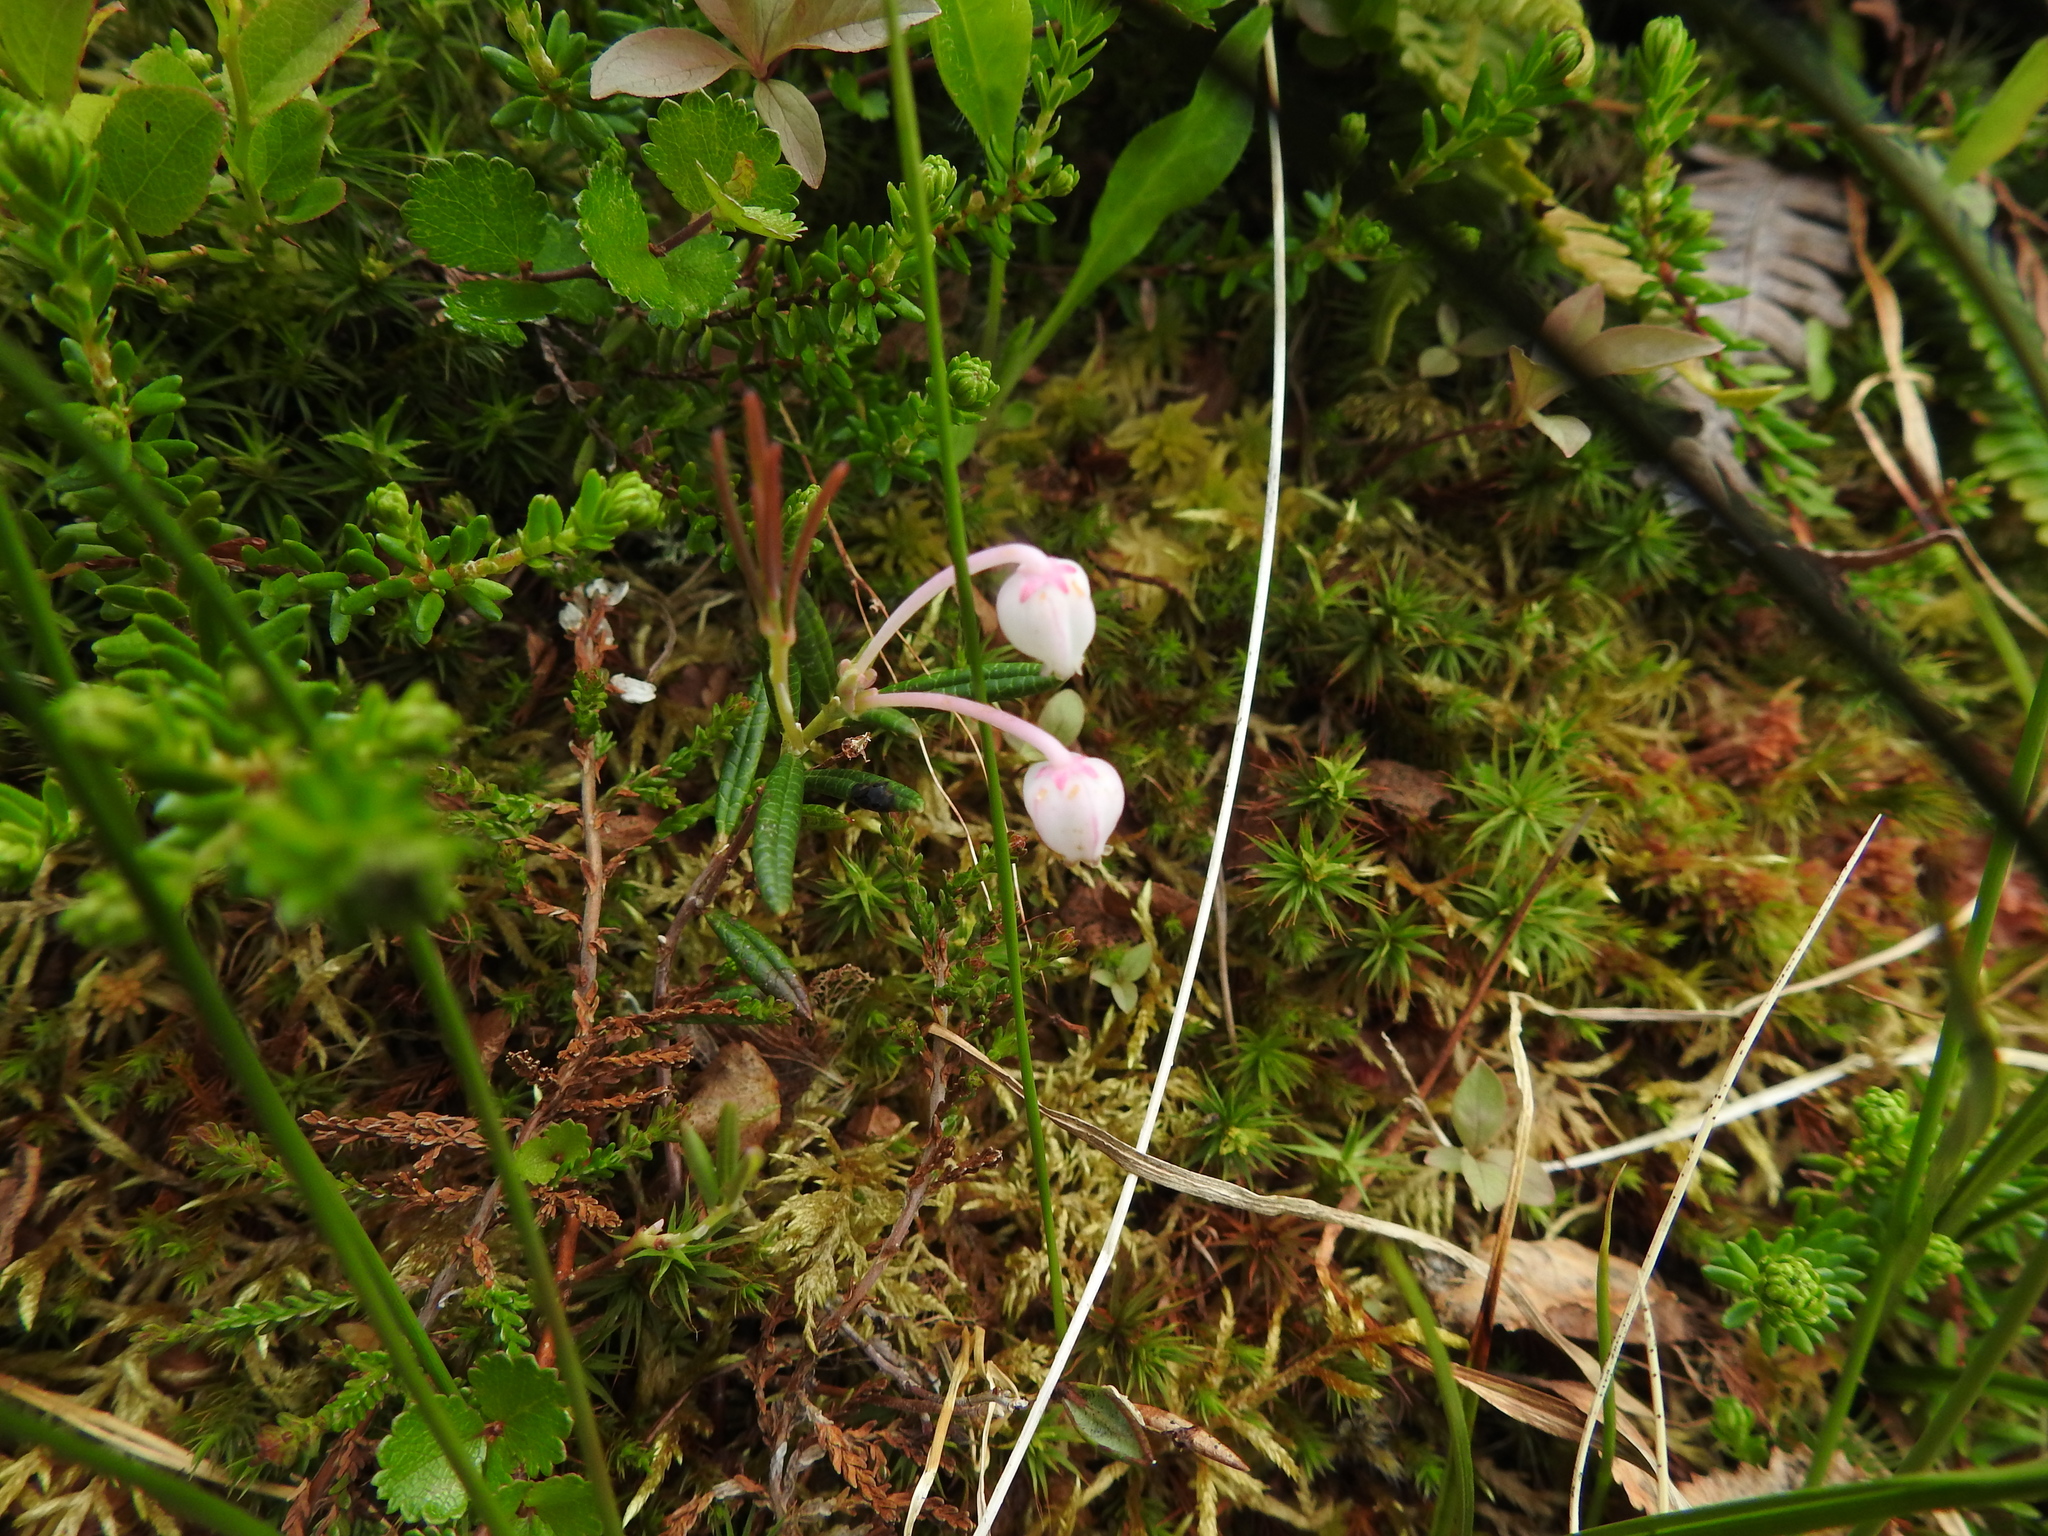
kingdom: Plantae
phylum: Tracheophyta
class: Magnoliopsida
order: Ericales
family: Ericaceae
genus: Andromeda
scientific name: Andromeda polifolia
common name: Bog-rosemary
